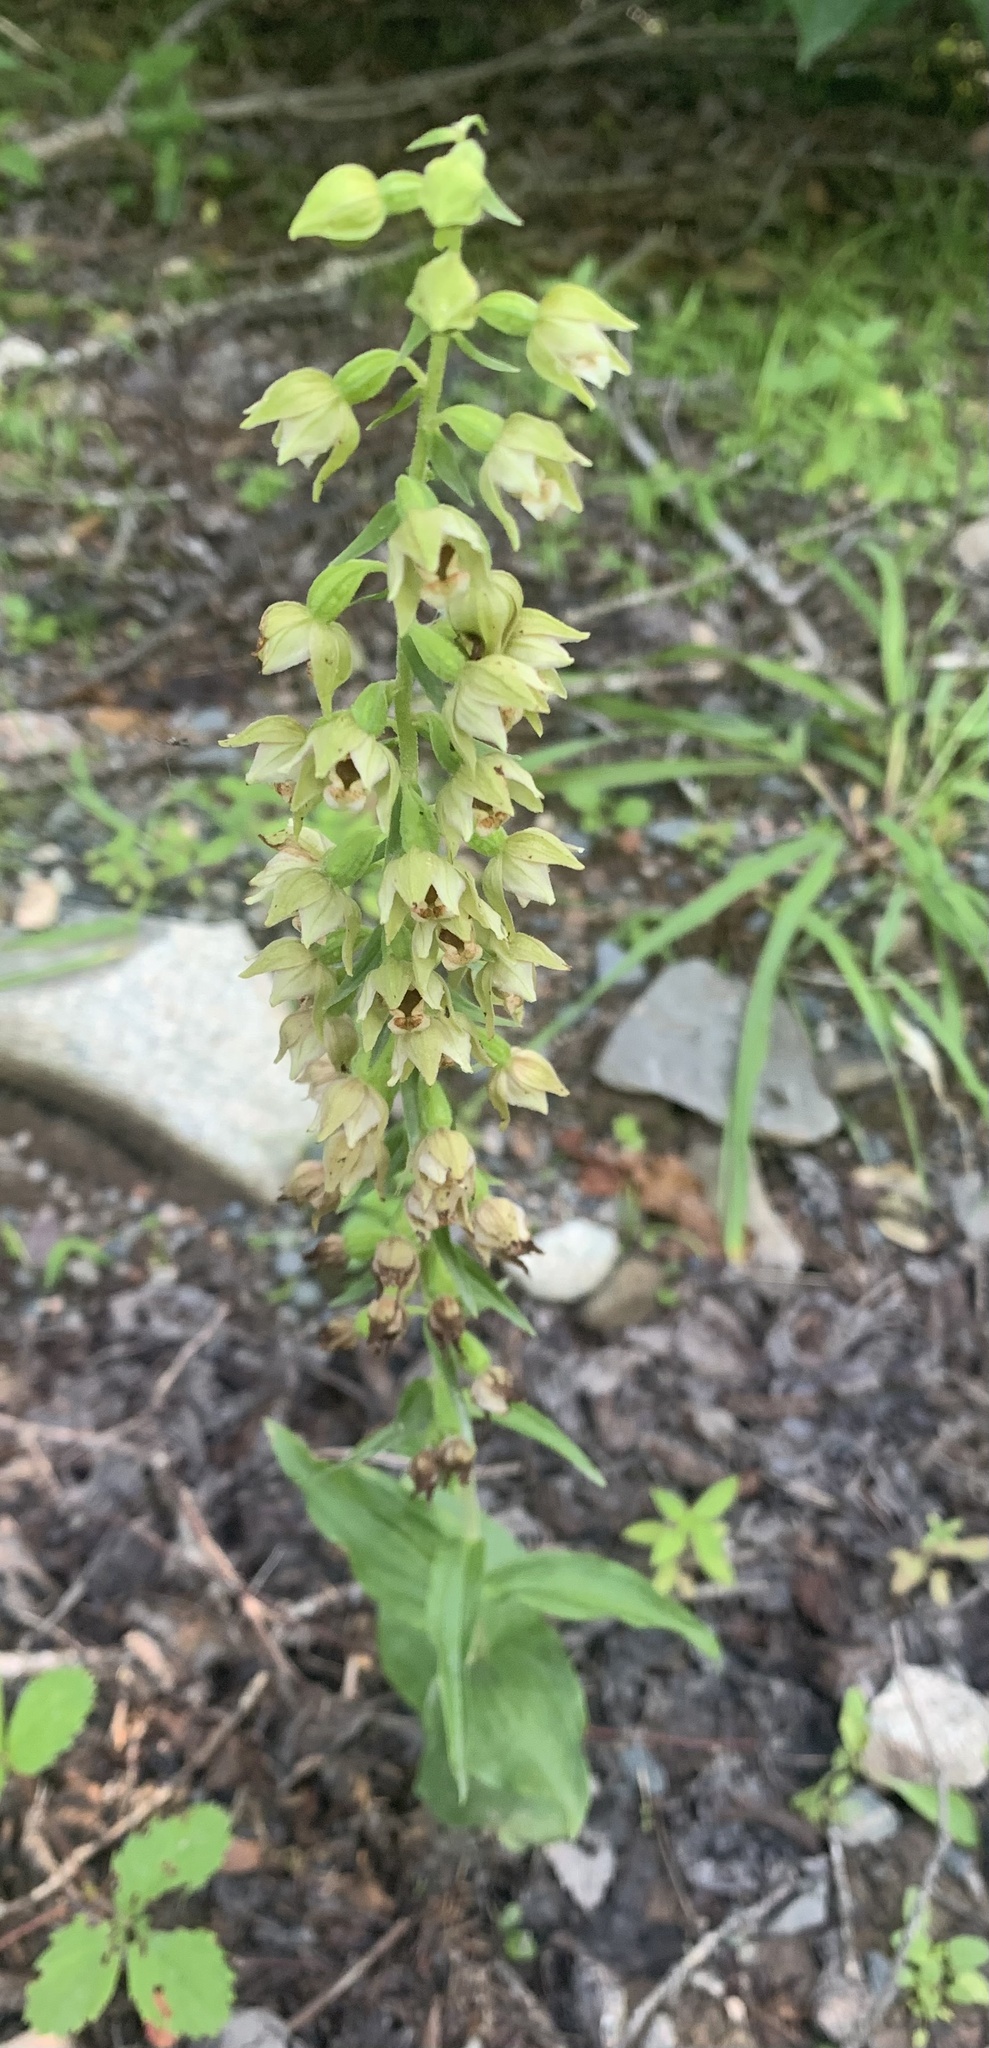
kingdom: Plantae
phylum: Tracheophyta
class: Liliopsida
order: Asparagales
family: Orchidaceae
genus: Epipactis
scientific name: Epipactis helleborine
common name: Broad-leaved helleborine
